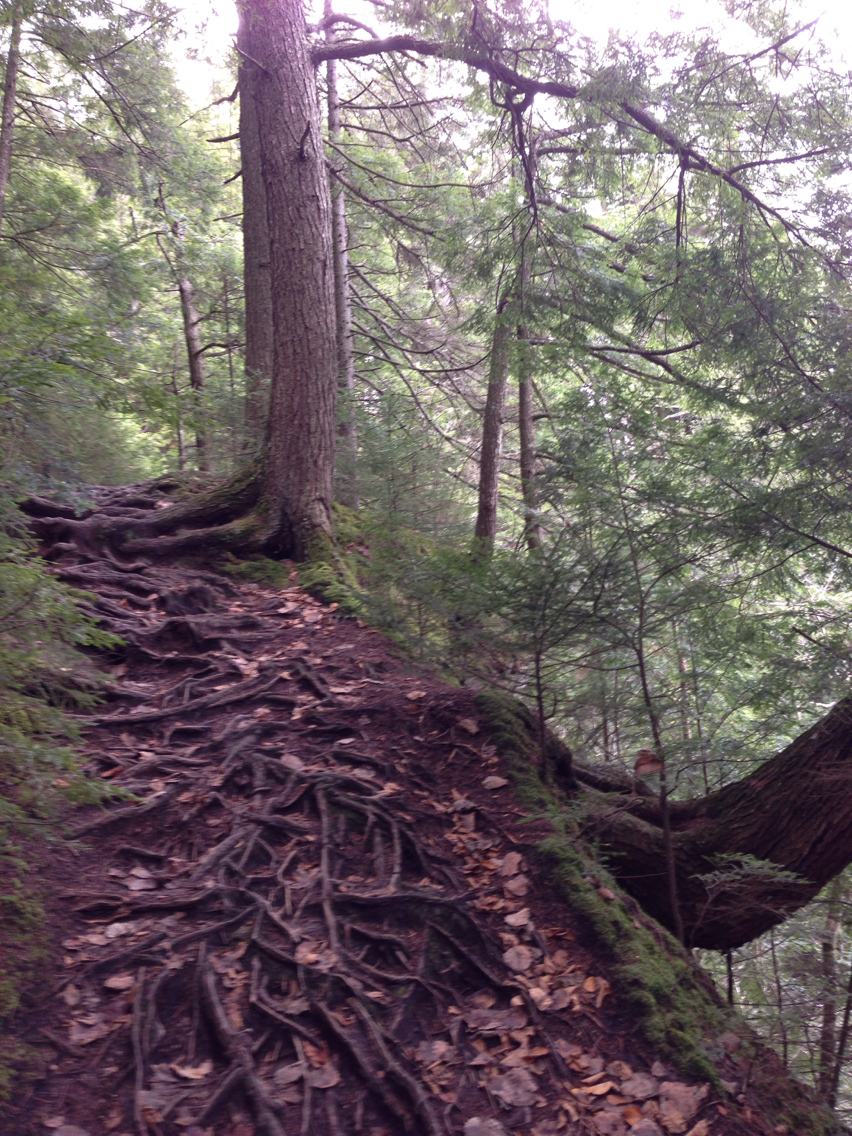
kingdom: Plantae
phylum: Tracheophyta
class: Pinopsida
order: Pinales
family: Pinaceae
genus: Tsuga
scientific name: Tsuga canadensis
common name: Eastern hemlock
